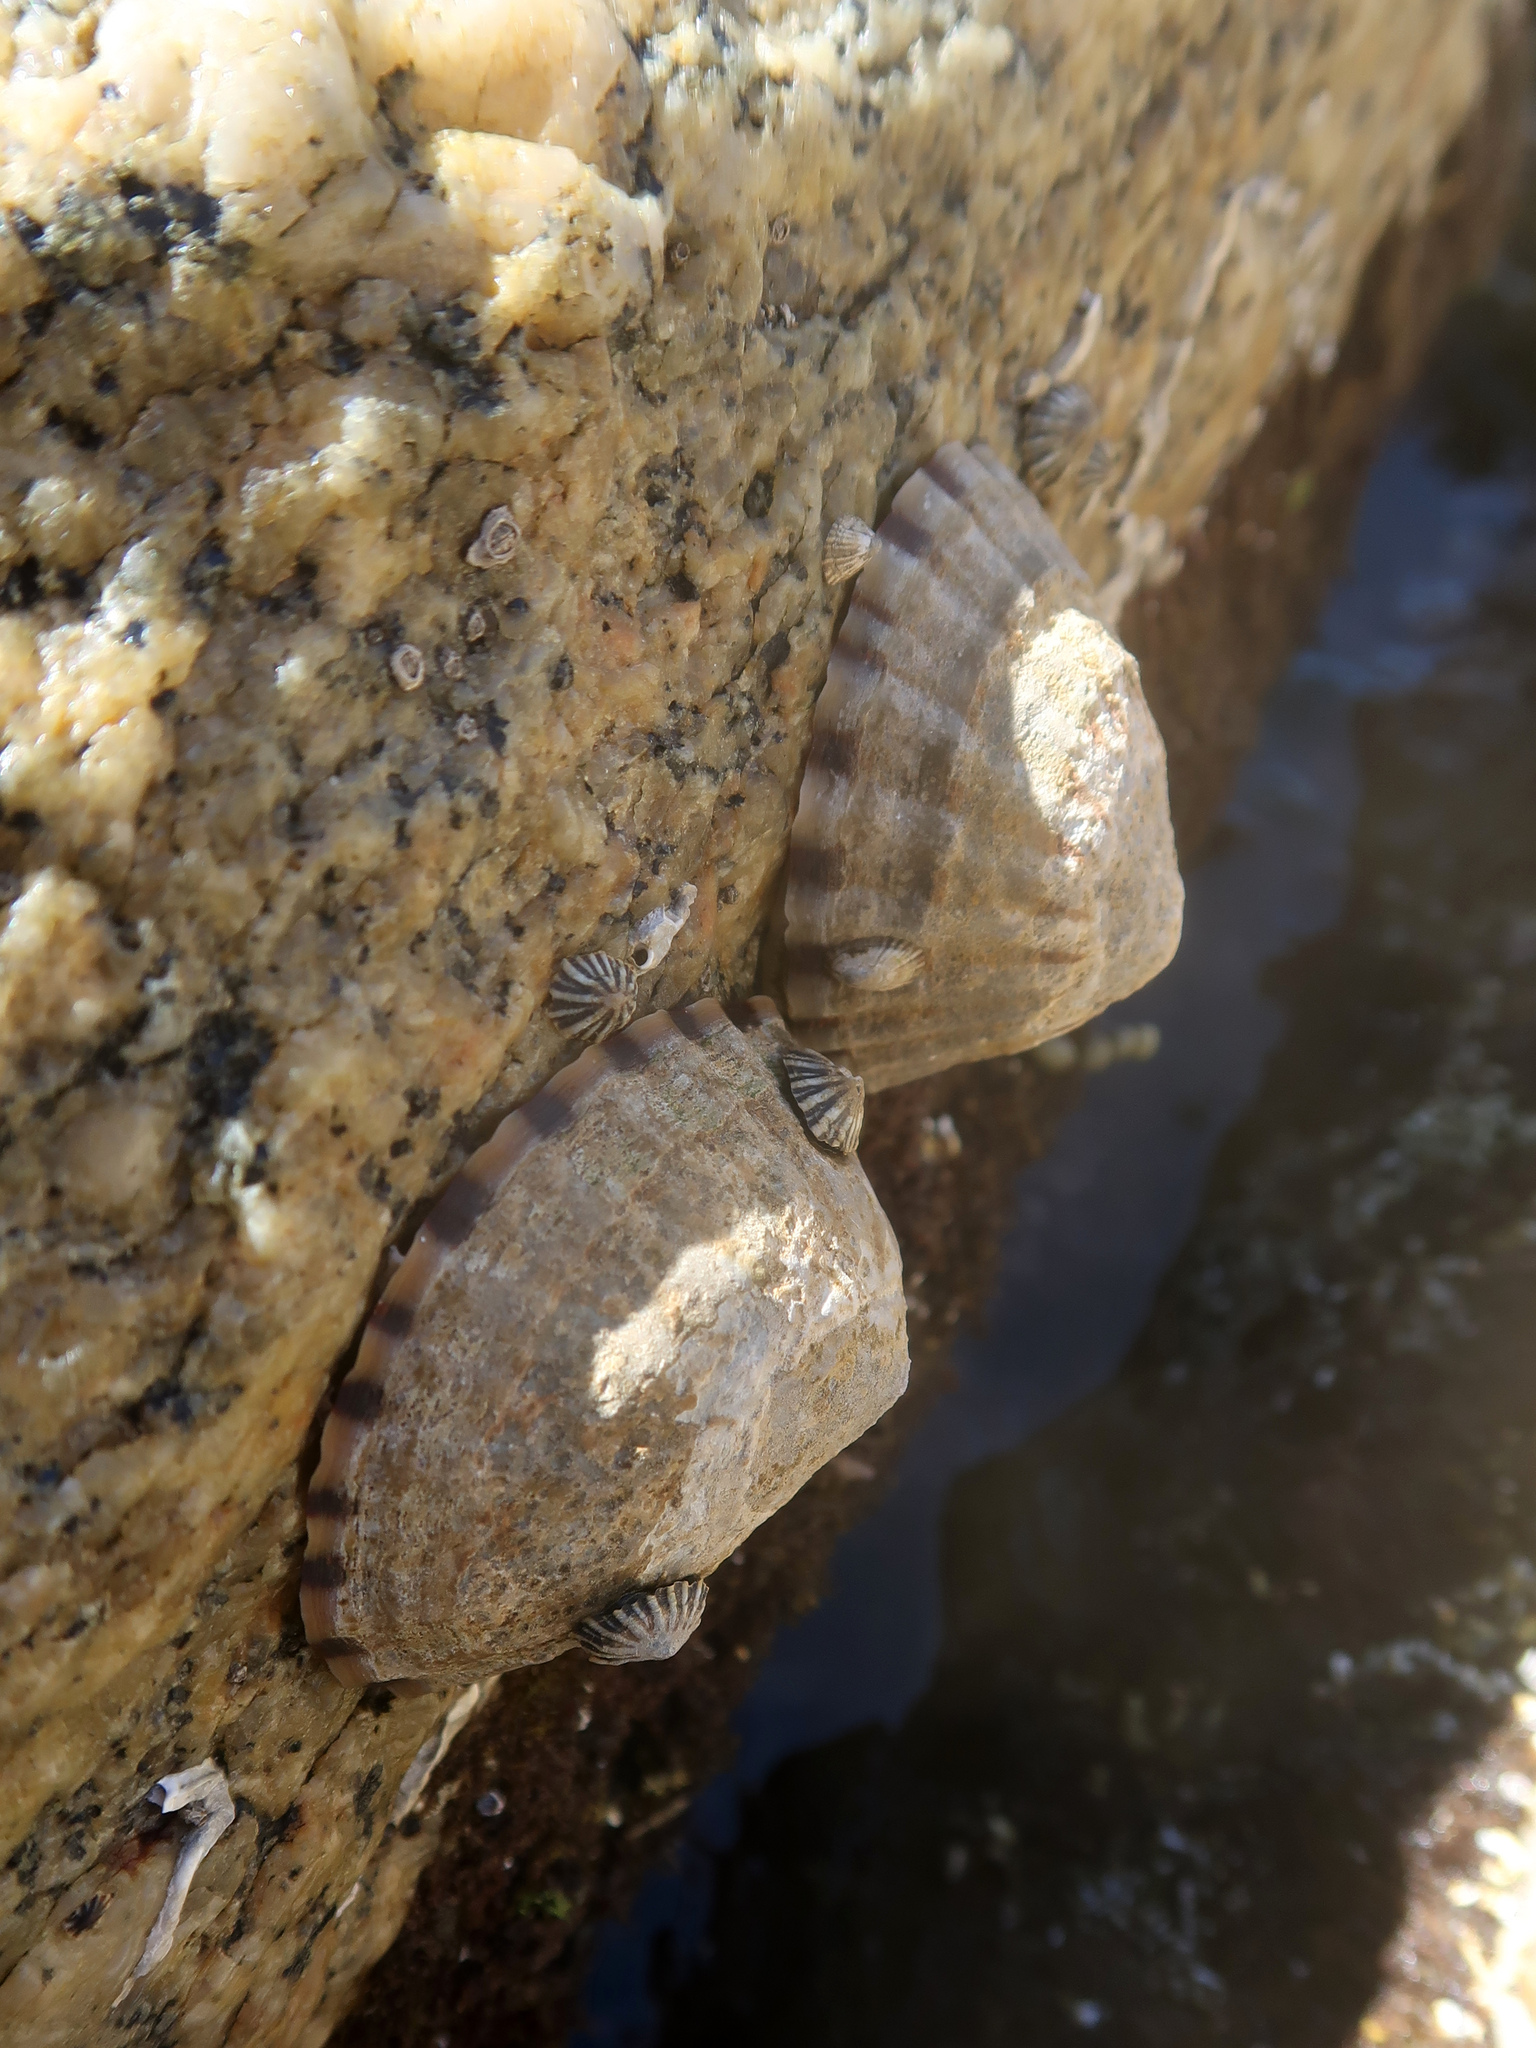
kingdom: Animalia
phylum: Mollusca
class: Gastropoda
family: Nacellidae
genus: Cellana
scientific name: Cellana solida
